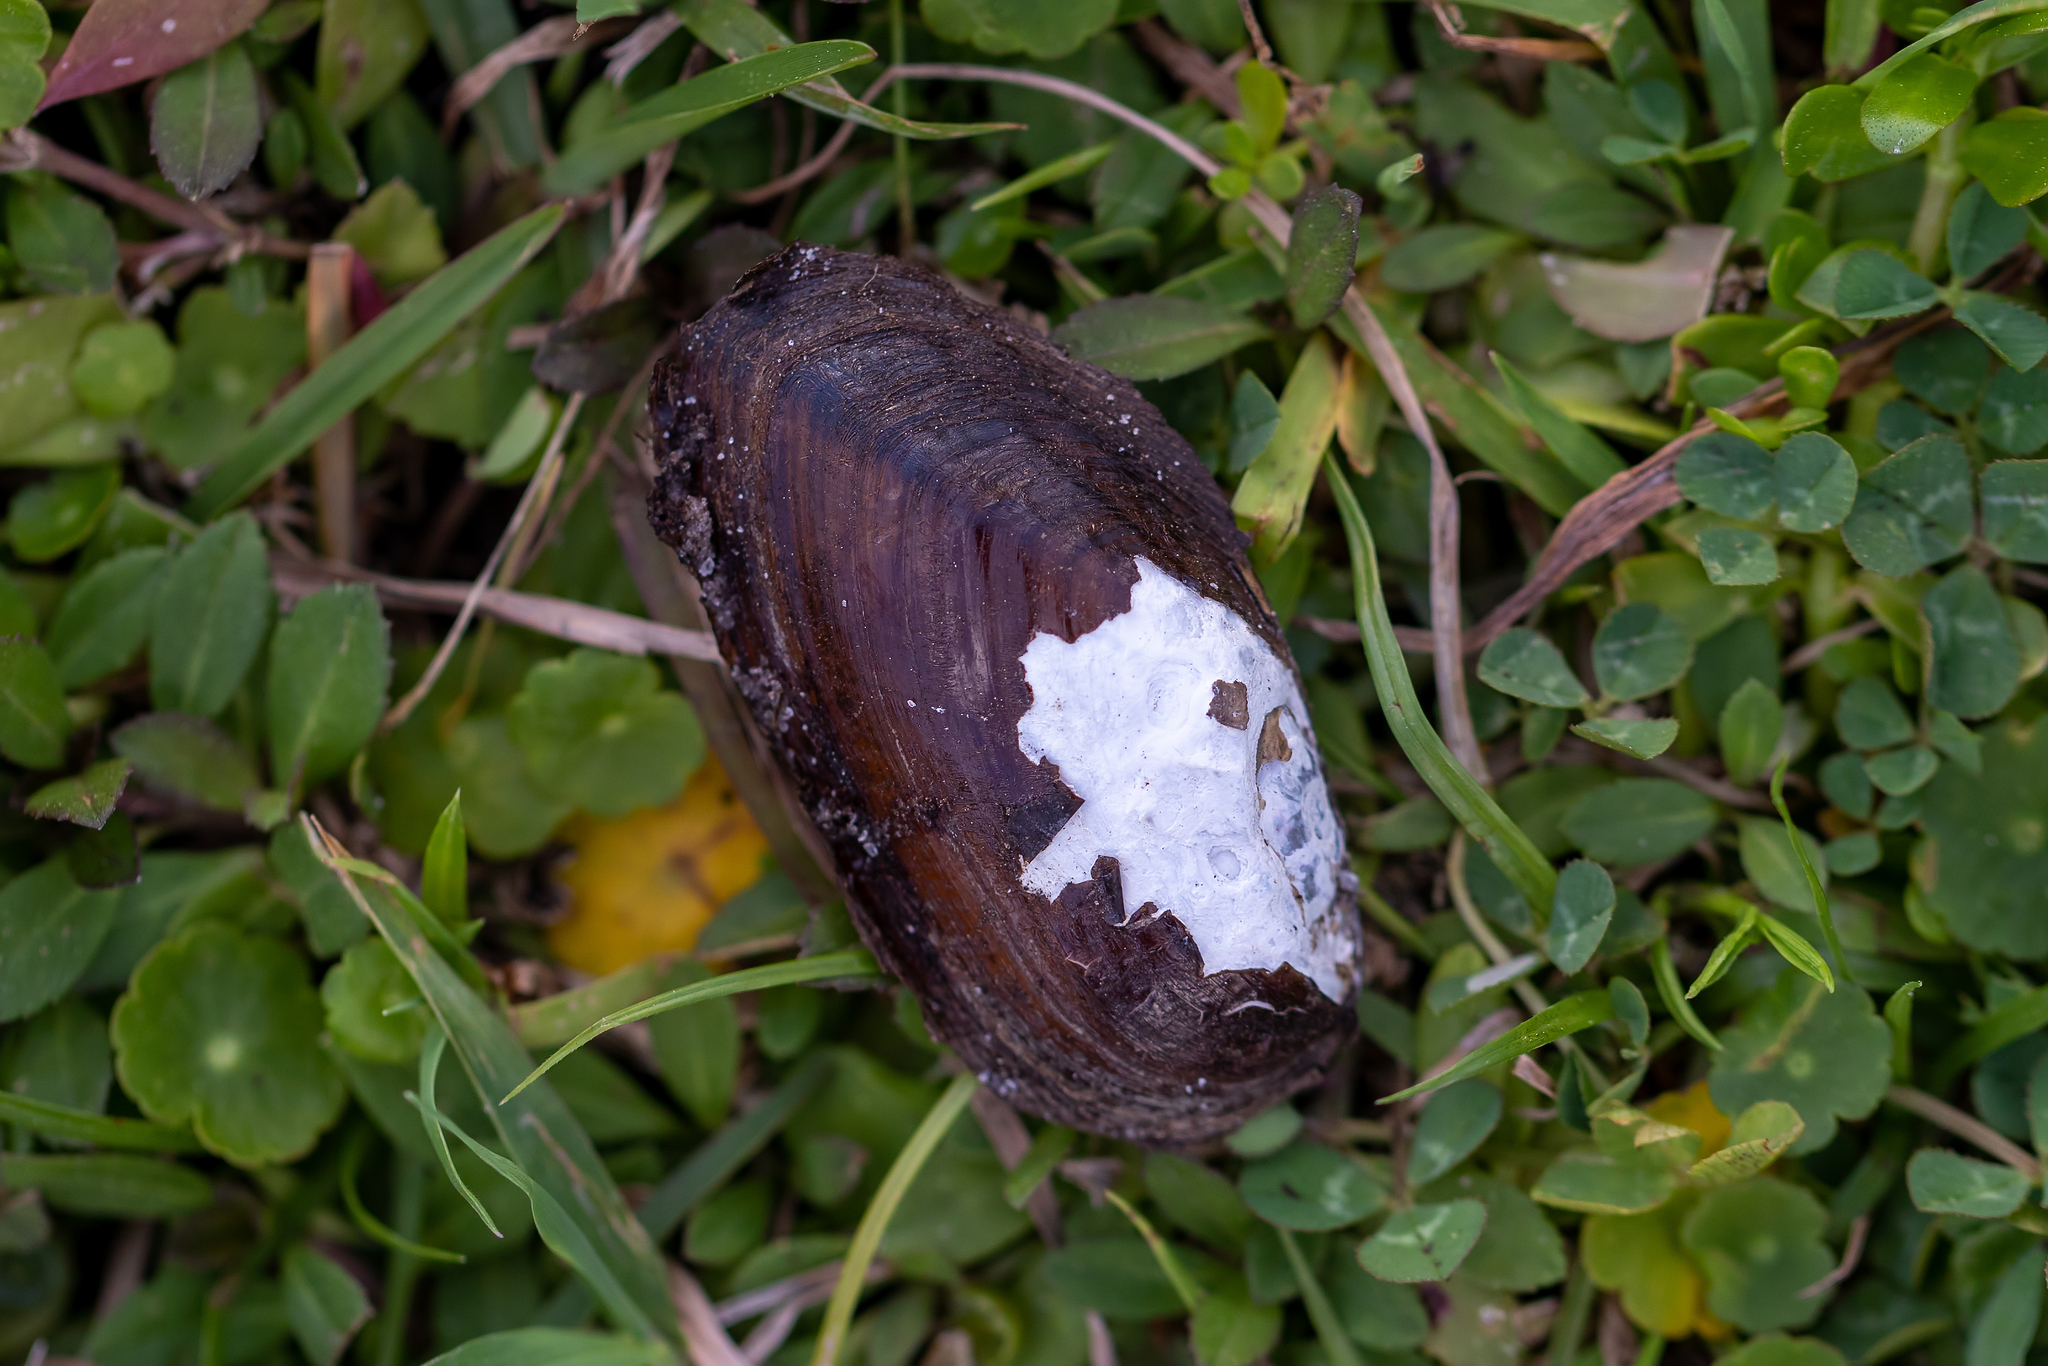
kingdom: Animalia
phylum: Mollusca
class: Bivalvia
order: Unionida
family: Unionidae
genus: Elliptio
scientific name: Elliptio jayensis
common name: Florida spike
